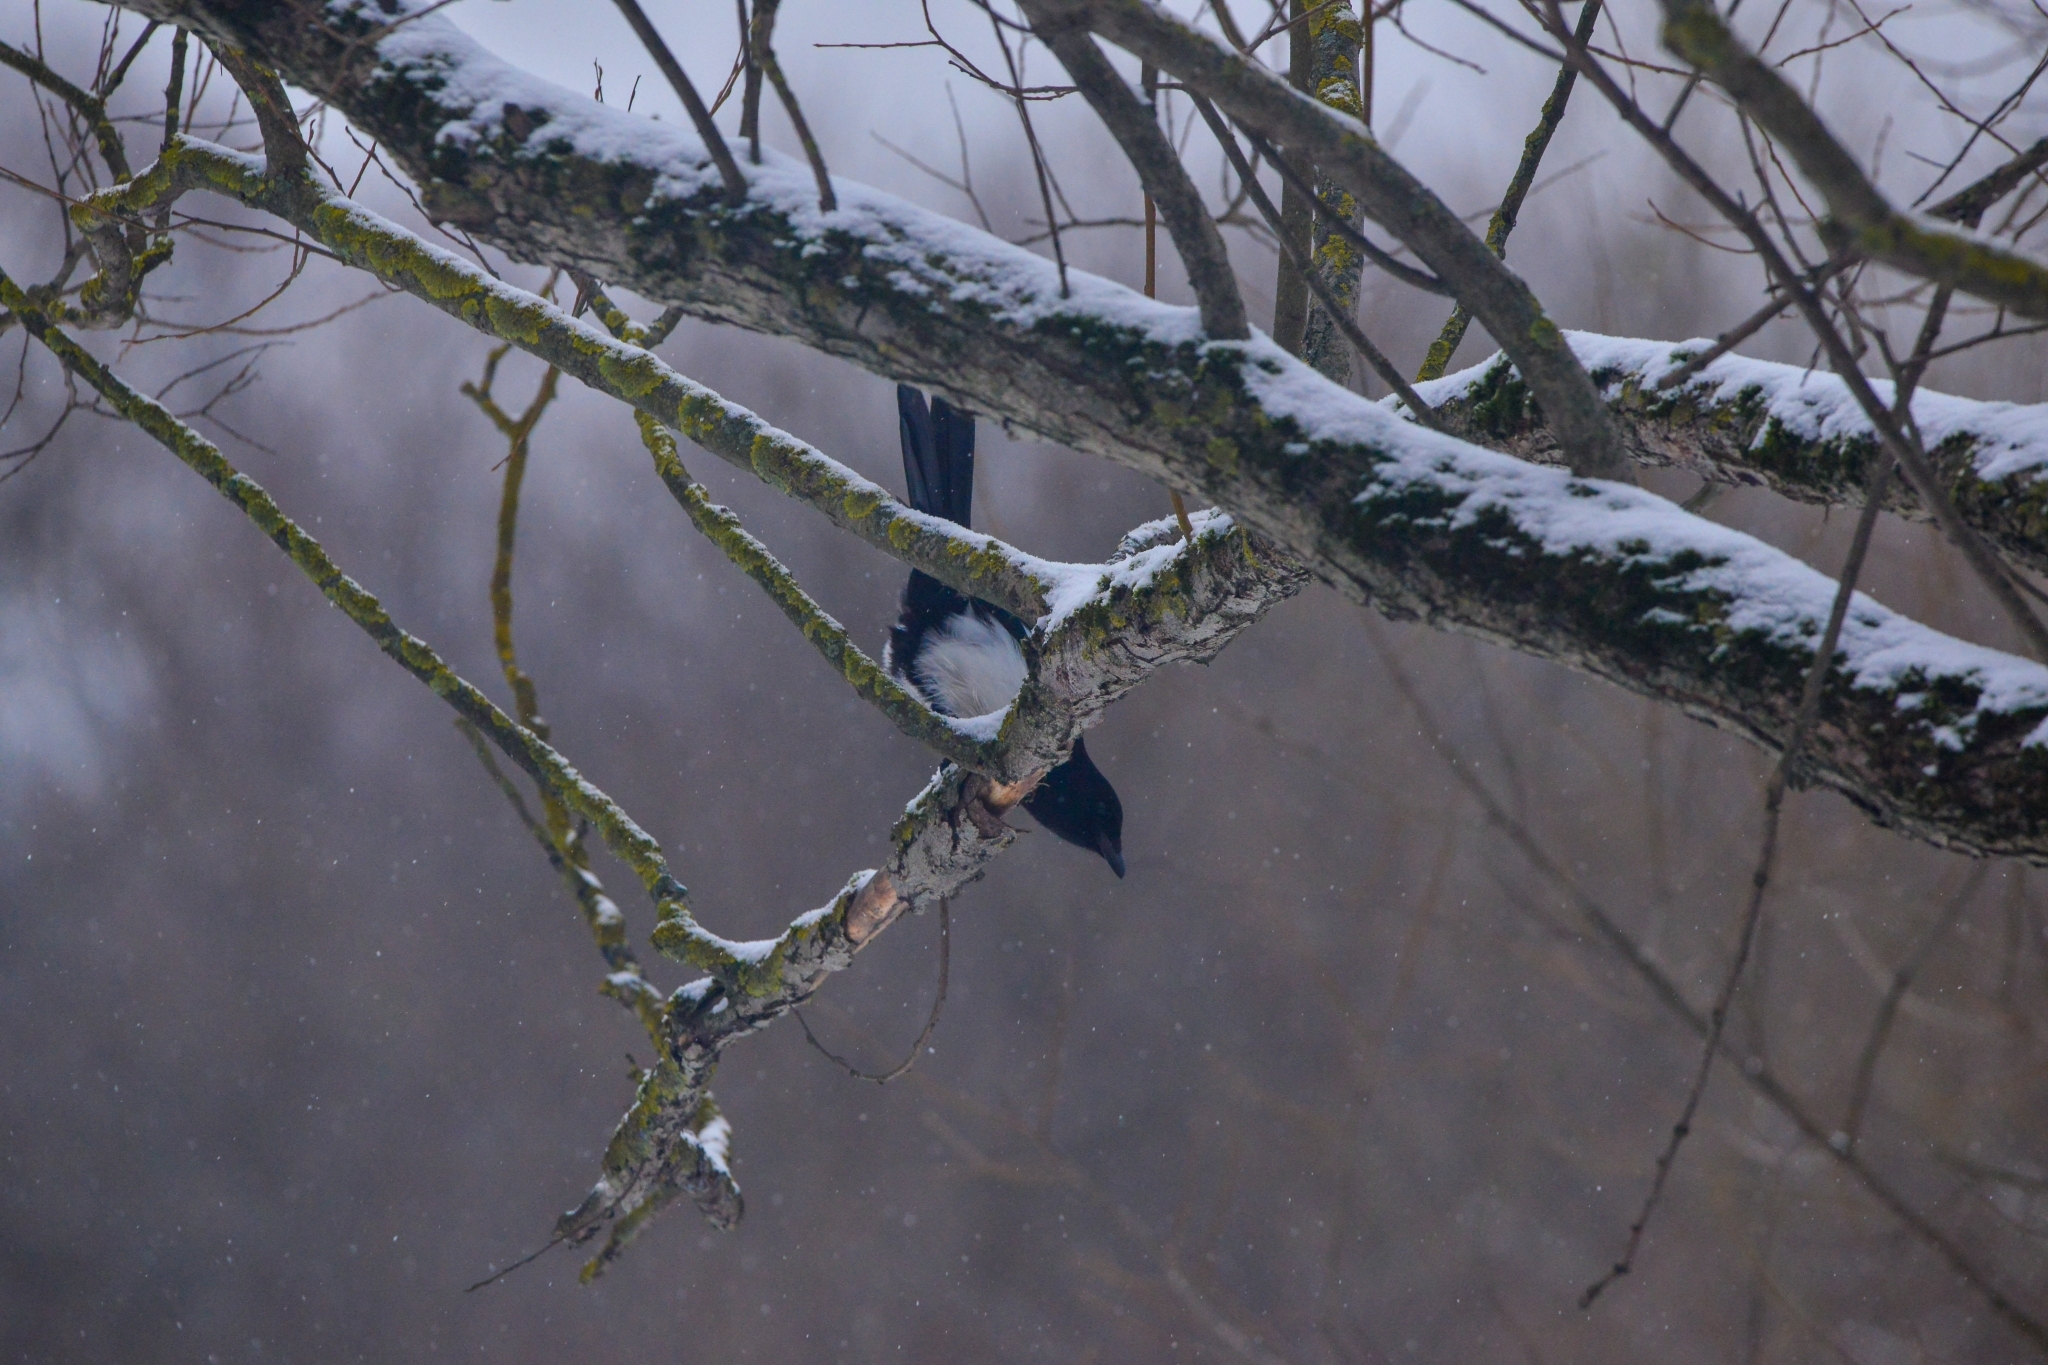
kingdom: Animalia
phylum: Chordata
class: Aves
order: Passeriformes
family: Corvidae
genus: Pica
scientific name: Pica pica
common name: Eurasian magpie
